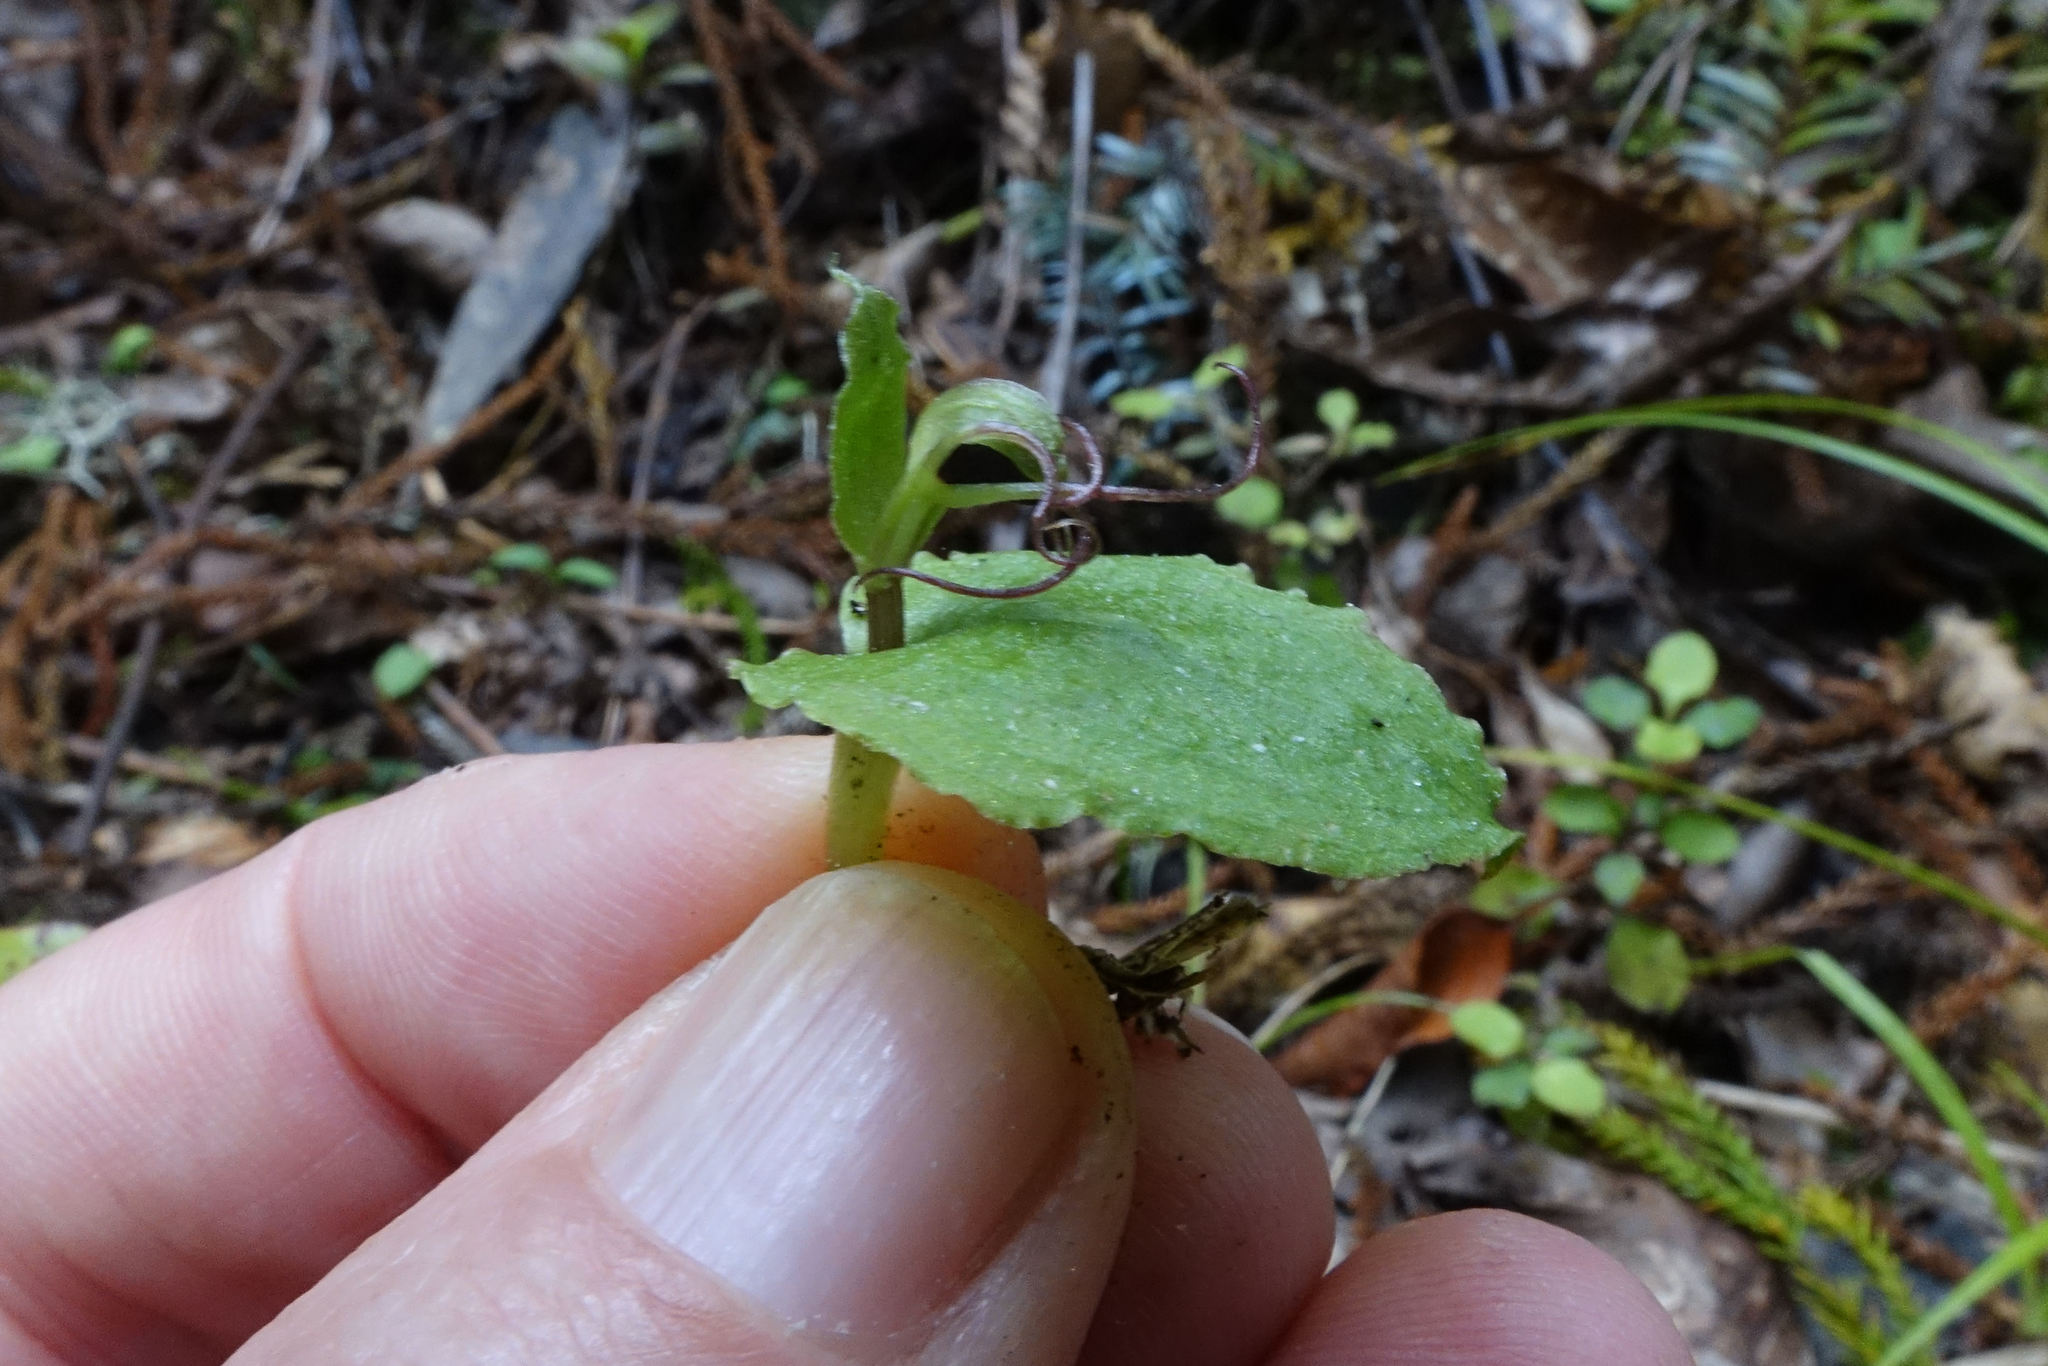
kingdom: Plantae
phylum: Tracheophyta
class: Liliopsida
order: Asparagales
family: Orchidaceae
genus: Corybas
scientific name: Corybas oblongus
